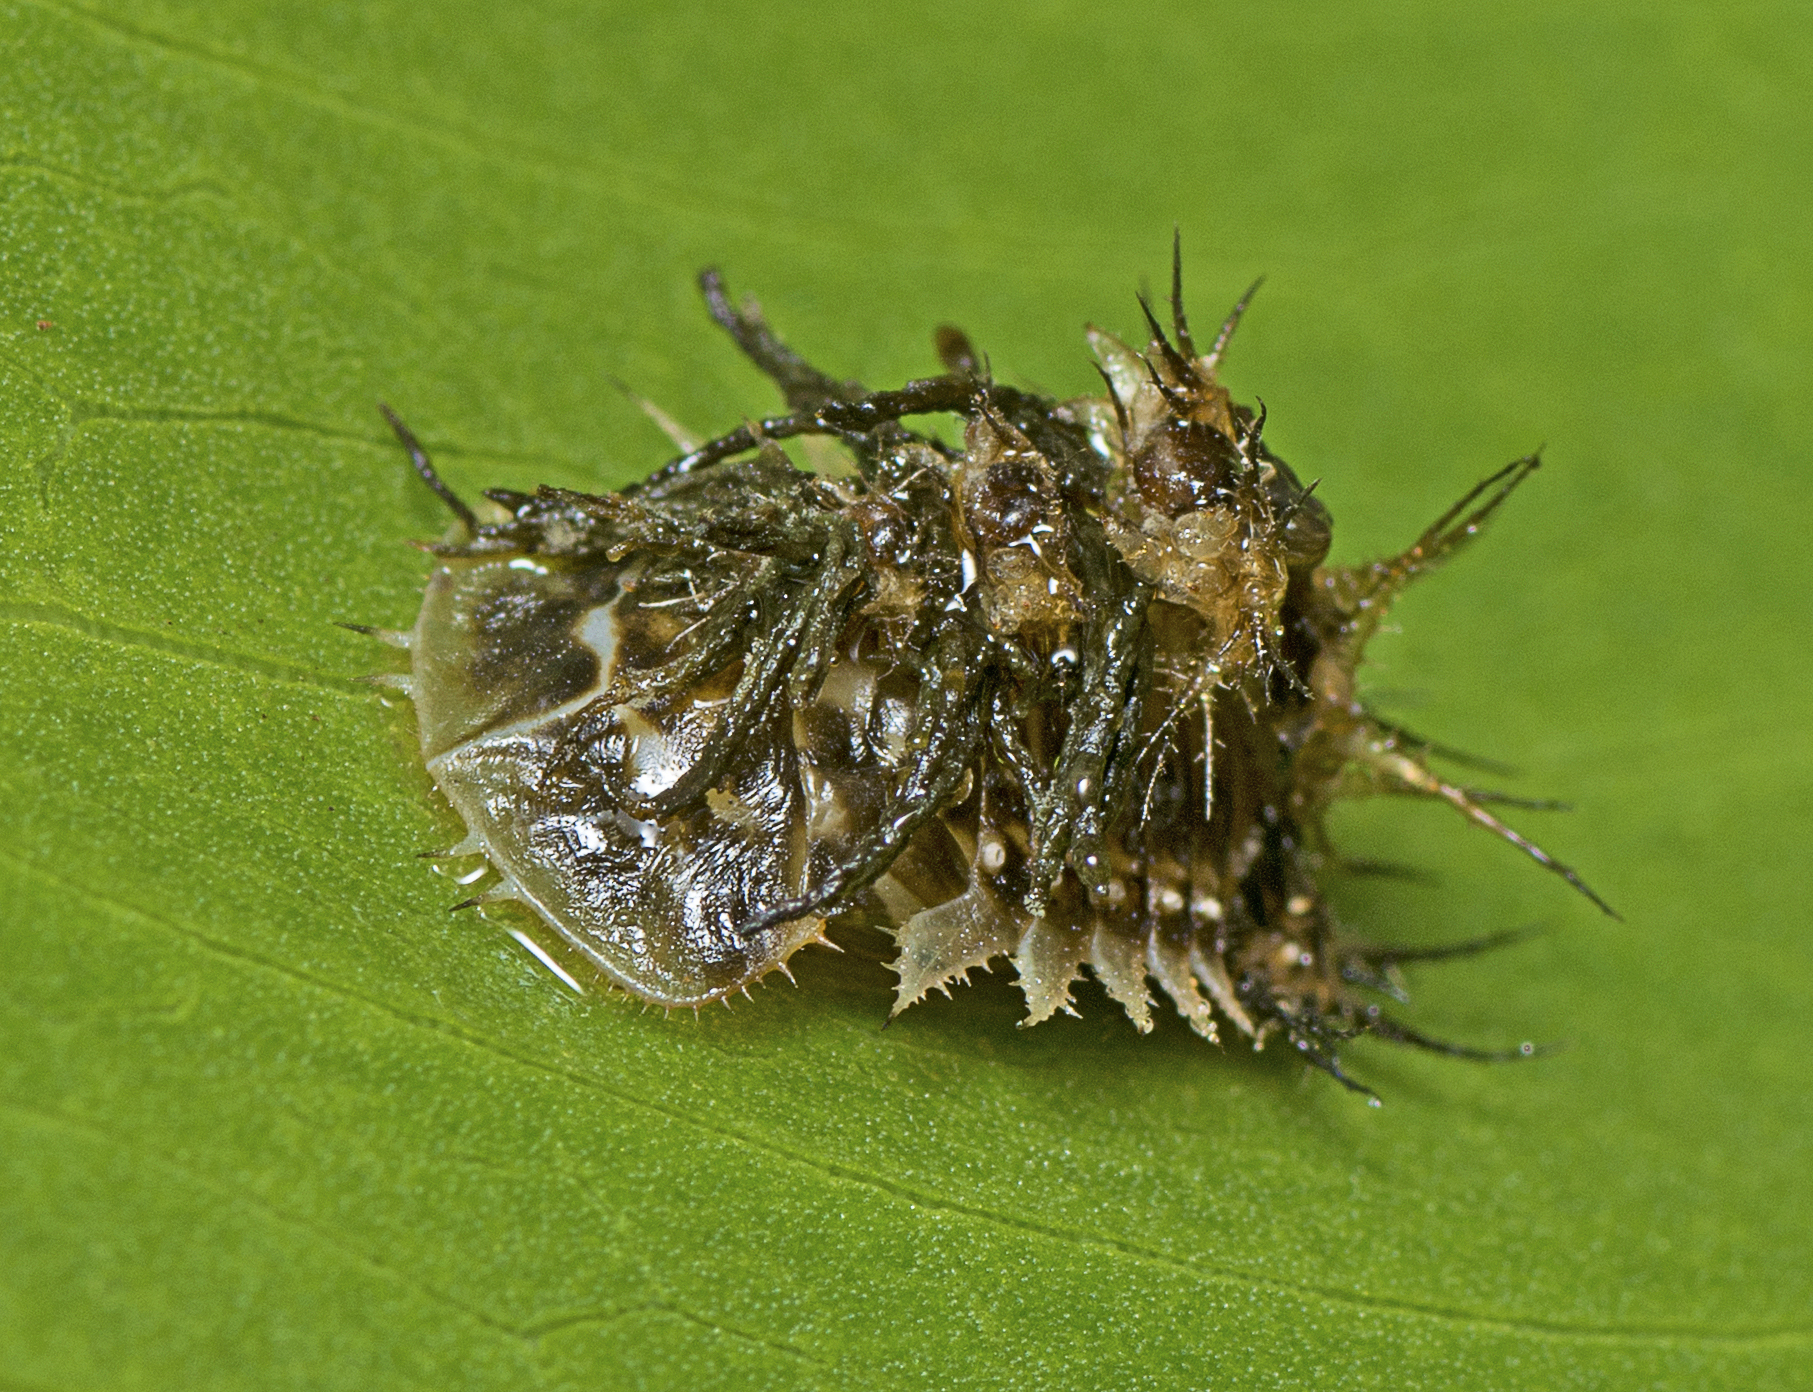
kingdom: Animalia
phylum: Arthropoda
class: Insecta
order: Coleoptera
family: Chrysomelidae
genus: Aspidimorpha
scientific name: Aspidimorpha deusta
